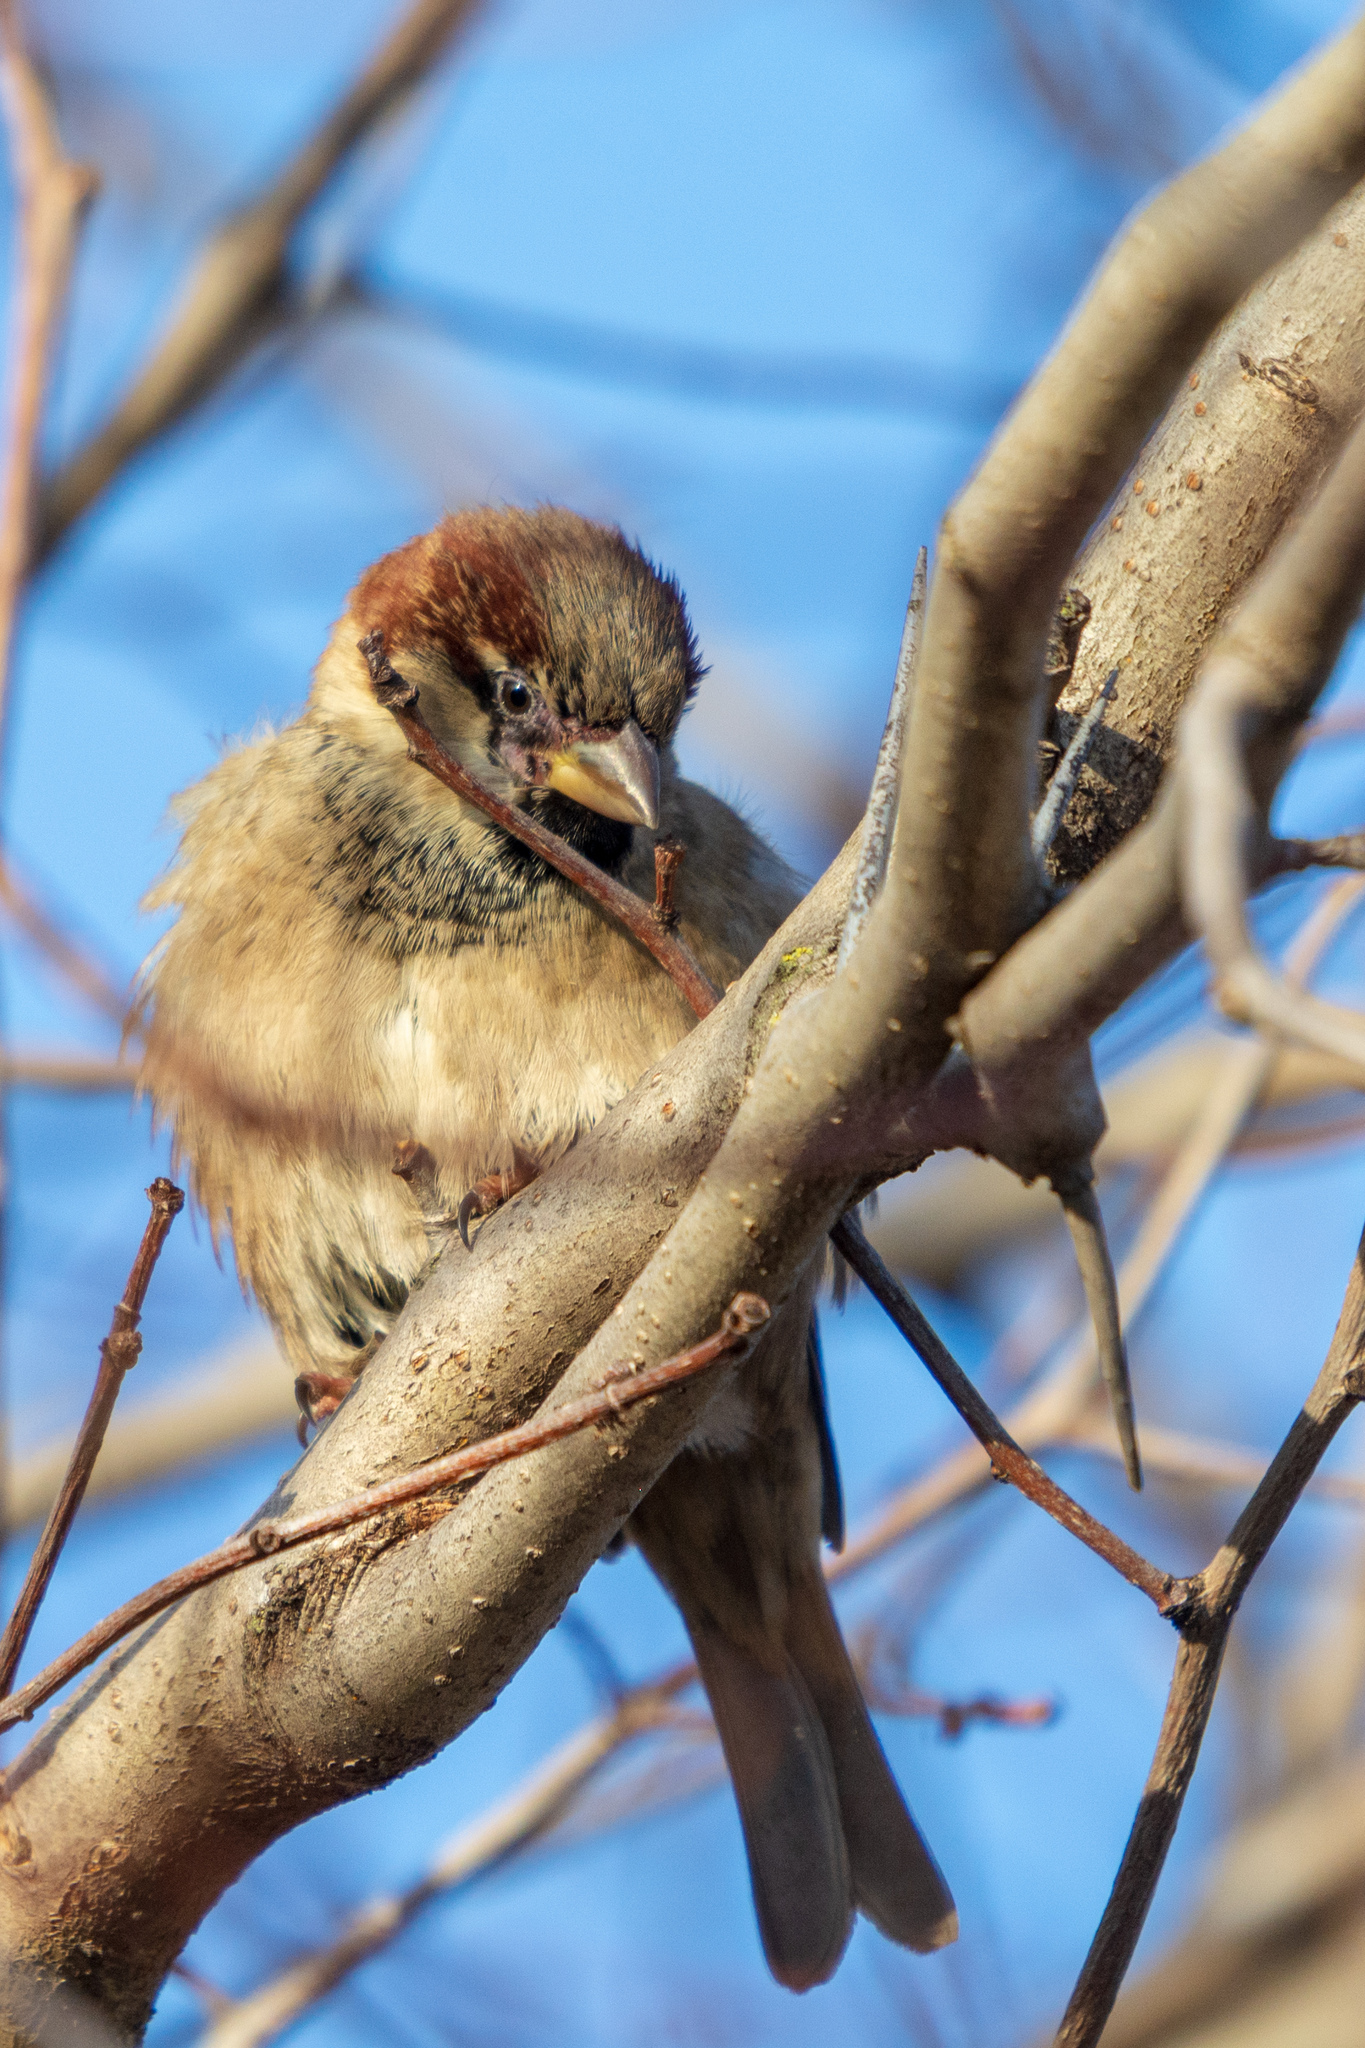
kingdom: Animalia
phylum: Chordata
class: Aves
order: Passeriformes
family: Passeridae
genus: Passer
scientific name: Passer domesticus
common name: House sparrow
